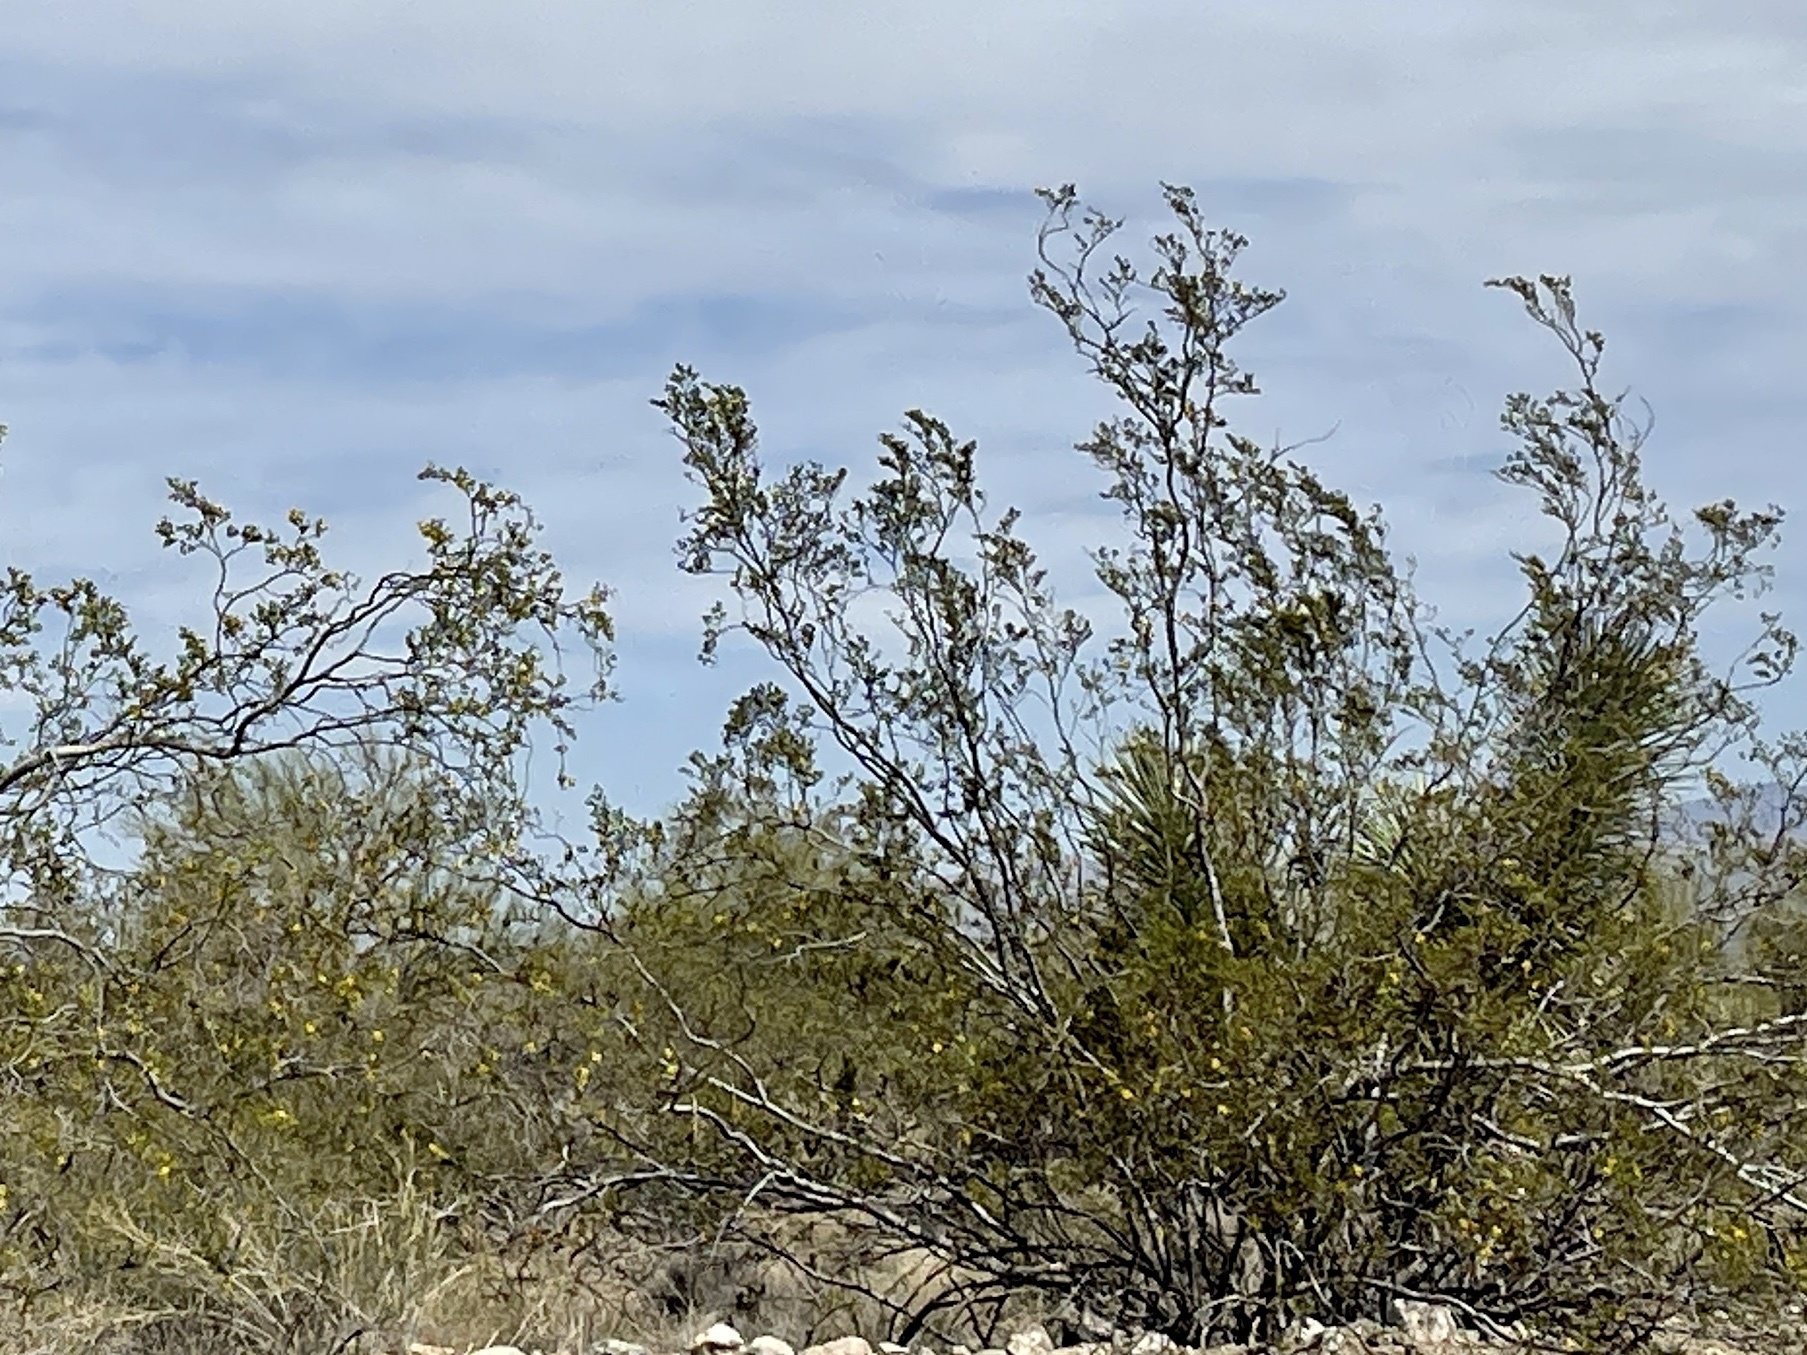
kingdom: Plantae
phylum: Tracheophyta
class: Magnoliopsida
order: Zygophyllales
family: Zygophyllaceae
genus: Larrea
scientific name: Larrea tridentata
